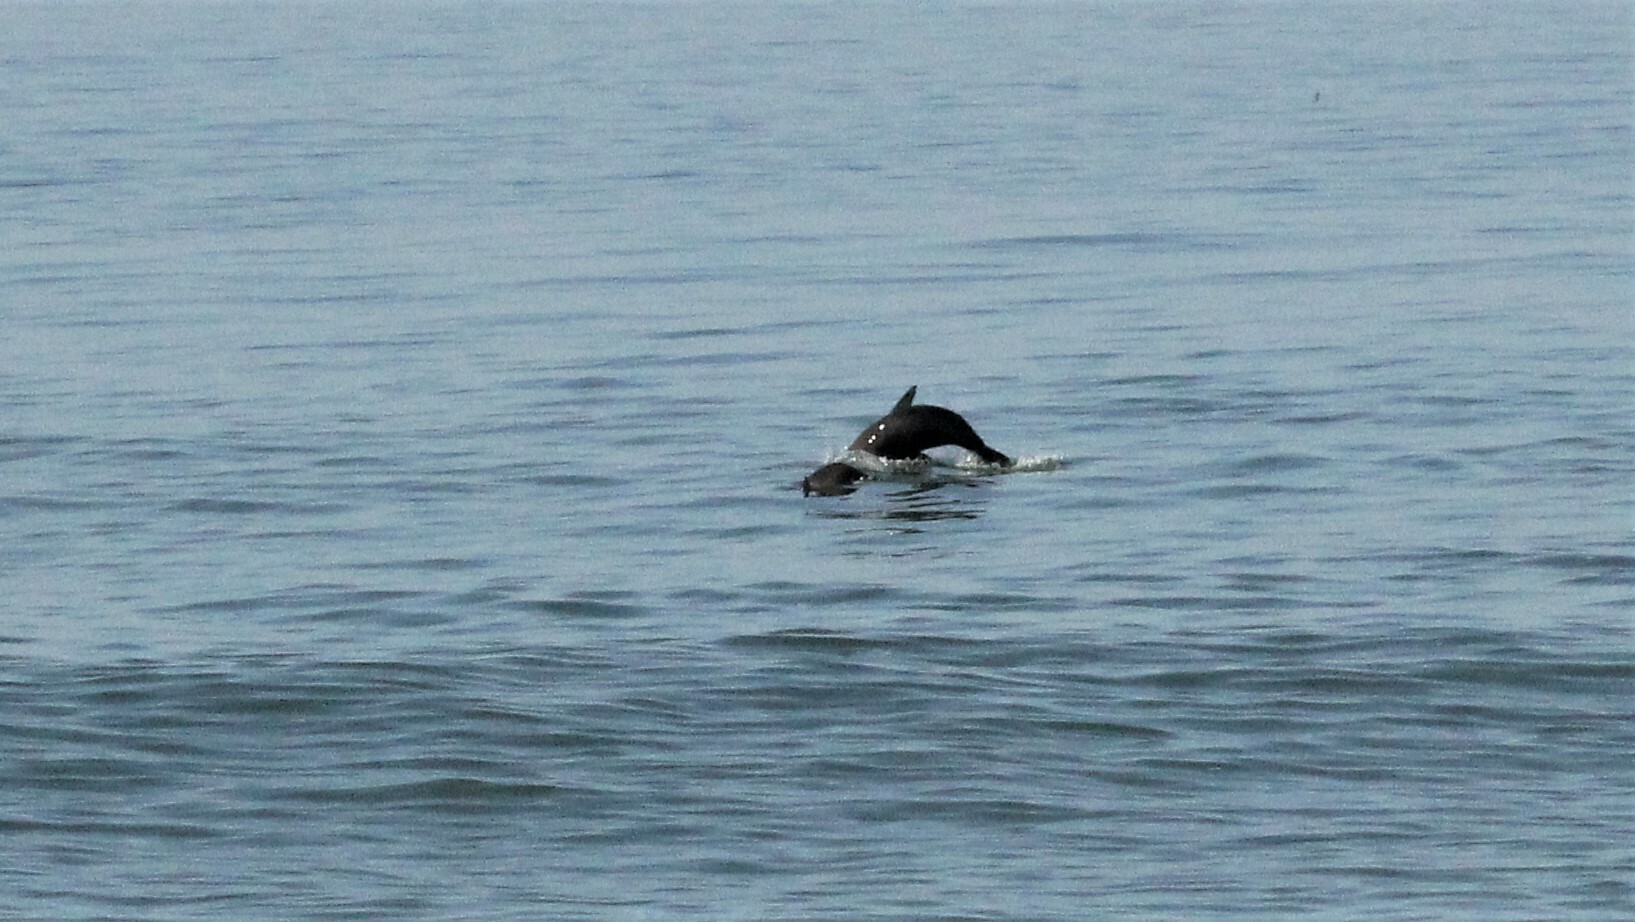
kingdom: Animalia
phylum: Chordata
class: Mammalia
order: Carnivora
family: Otariidae
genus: Otaria
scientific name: Otaria byronia
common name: South american sea lion
